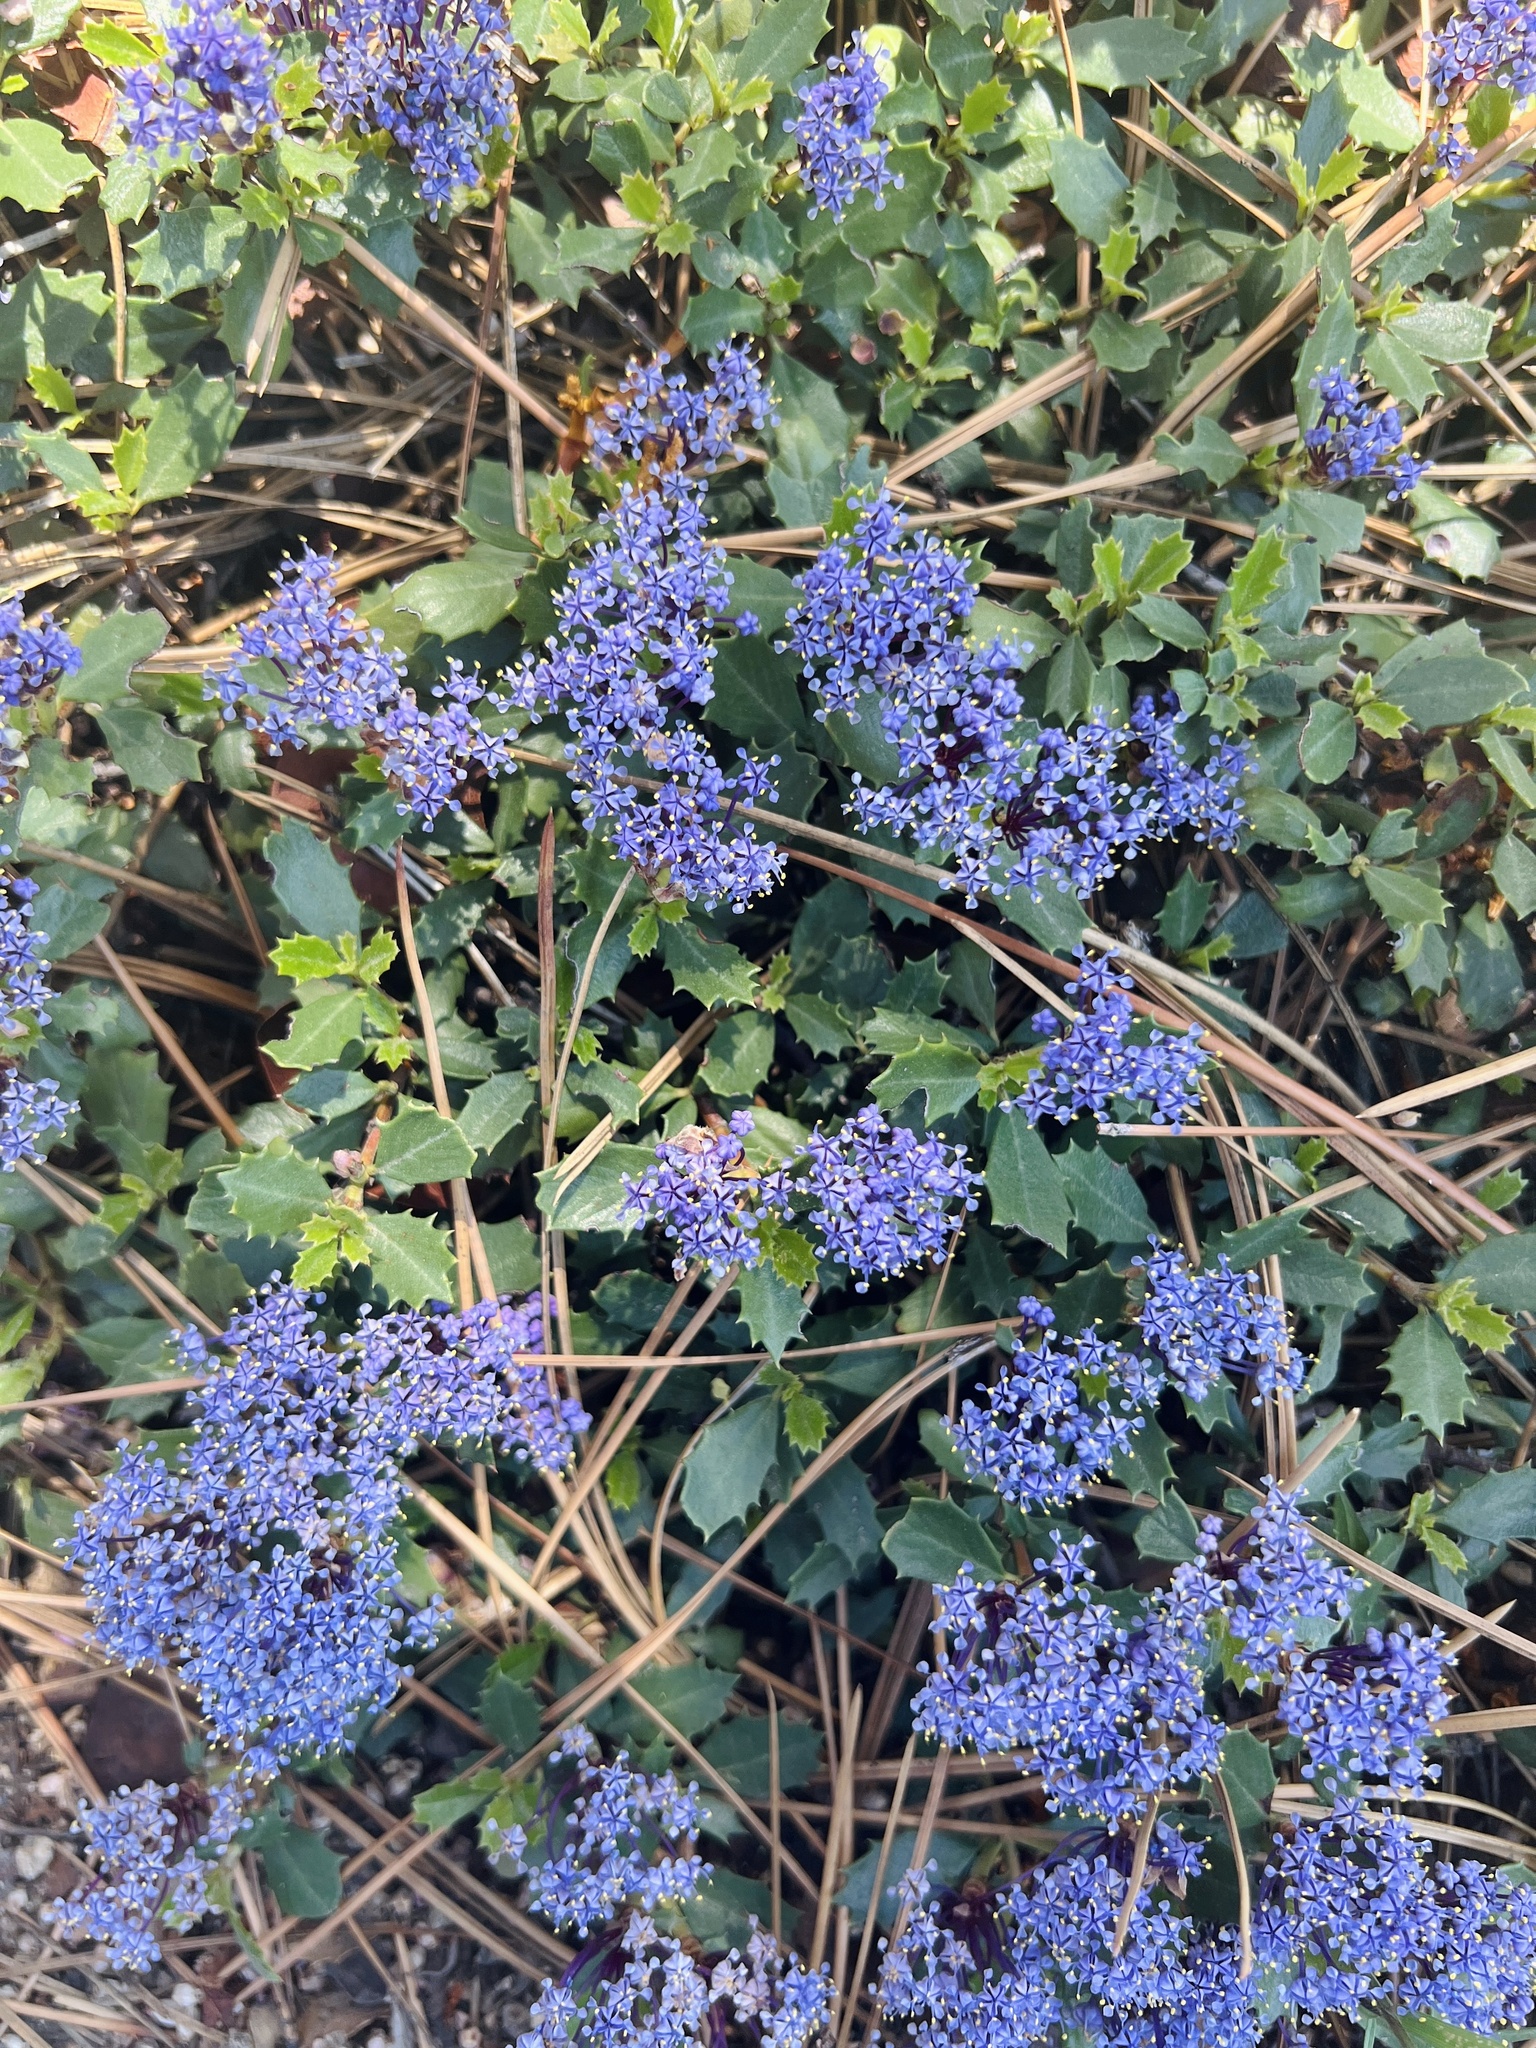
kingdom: Plantae
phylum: Tracheophyta
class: Magnoliopsida
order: Rosales
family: Rhamnaceae
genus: Ceanothus
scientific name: Ceanothus prostratus
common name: Mahala-mat
